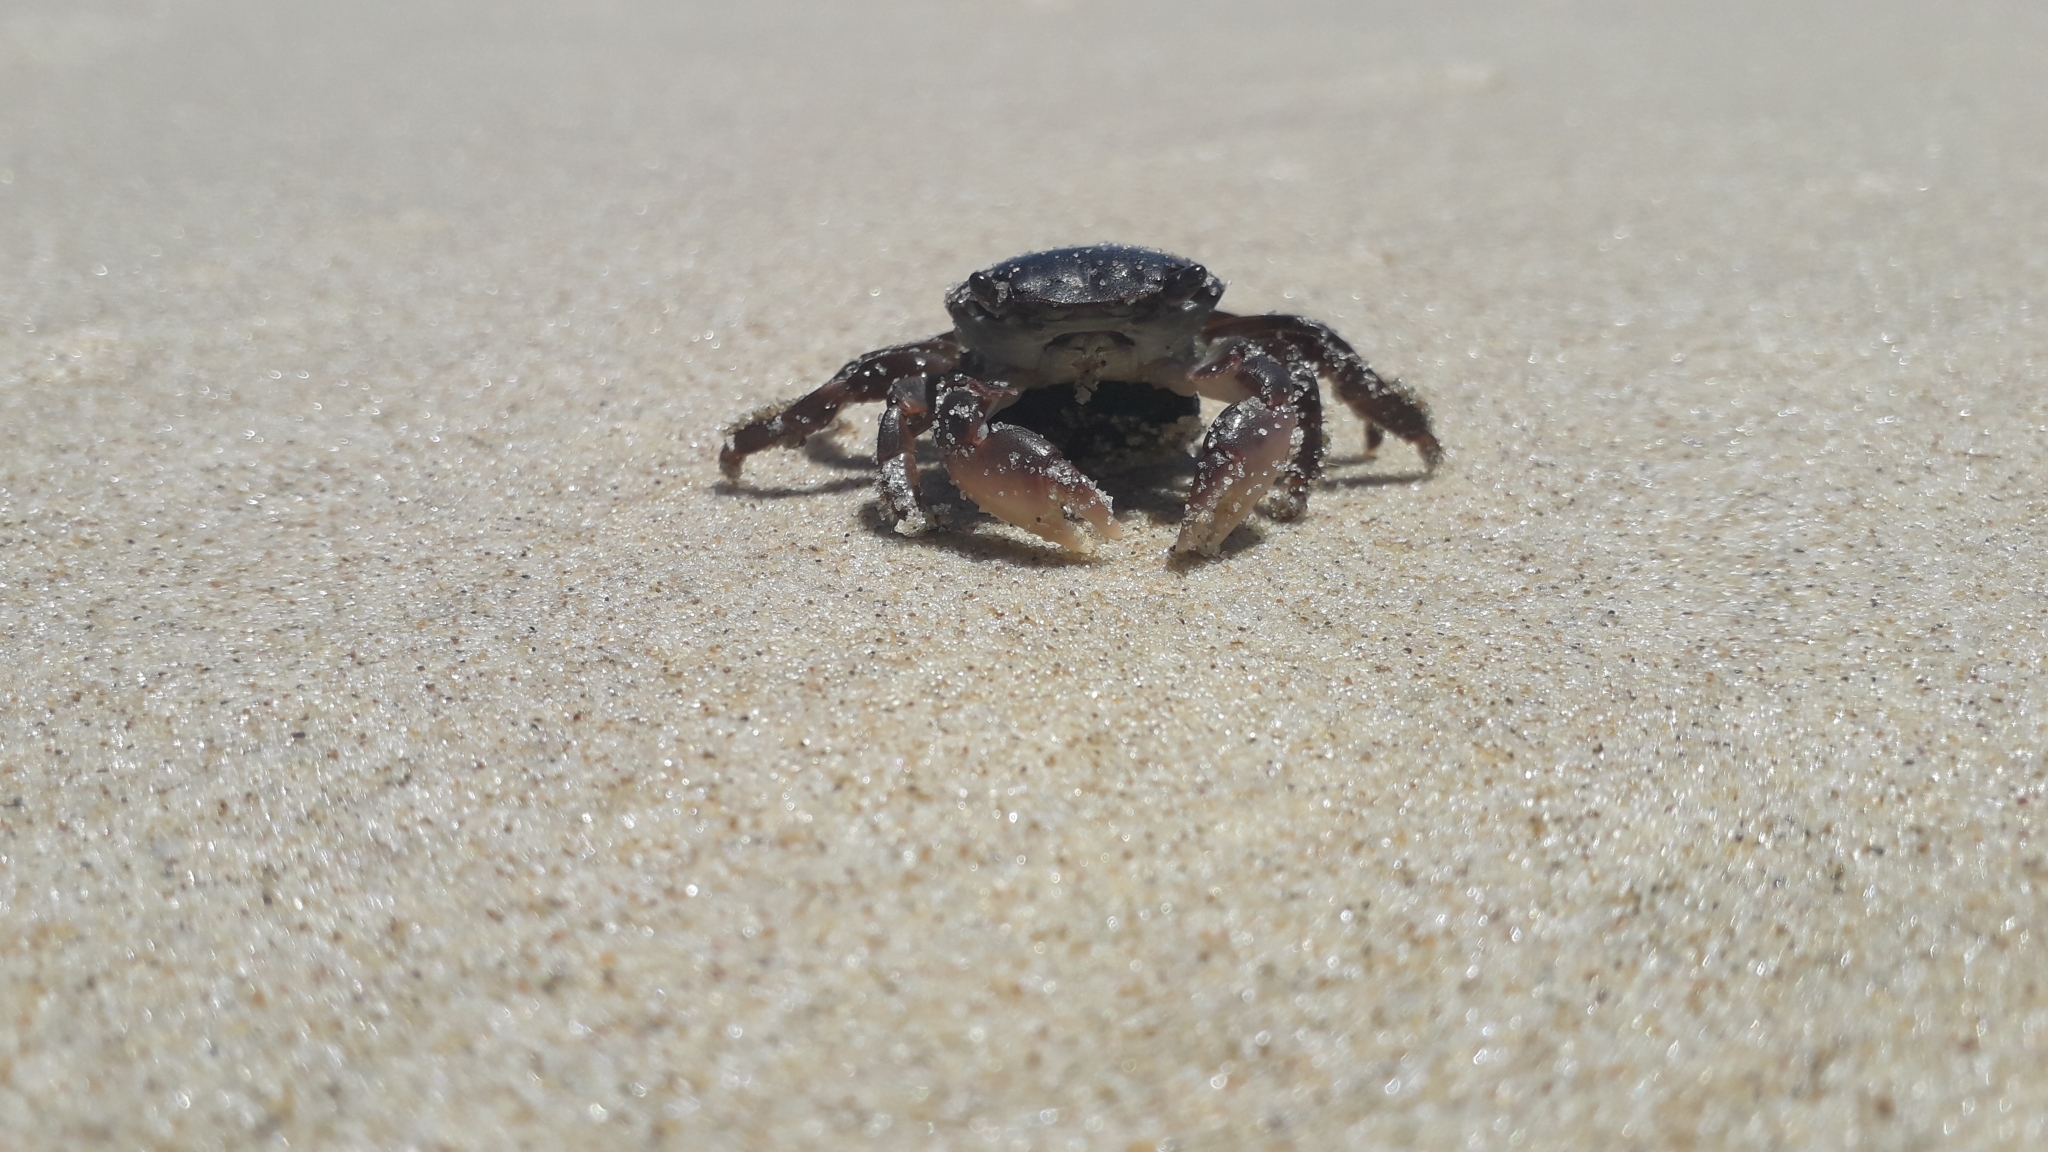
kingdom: Animalia
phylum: Arthropoda
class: Malacostraca
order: Decapoda
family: Grapsidae
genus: Planes
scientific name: Planes minutus
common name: Gulf weed crab
